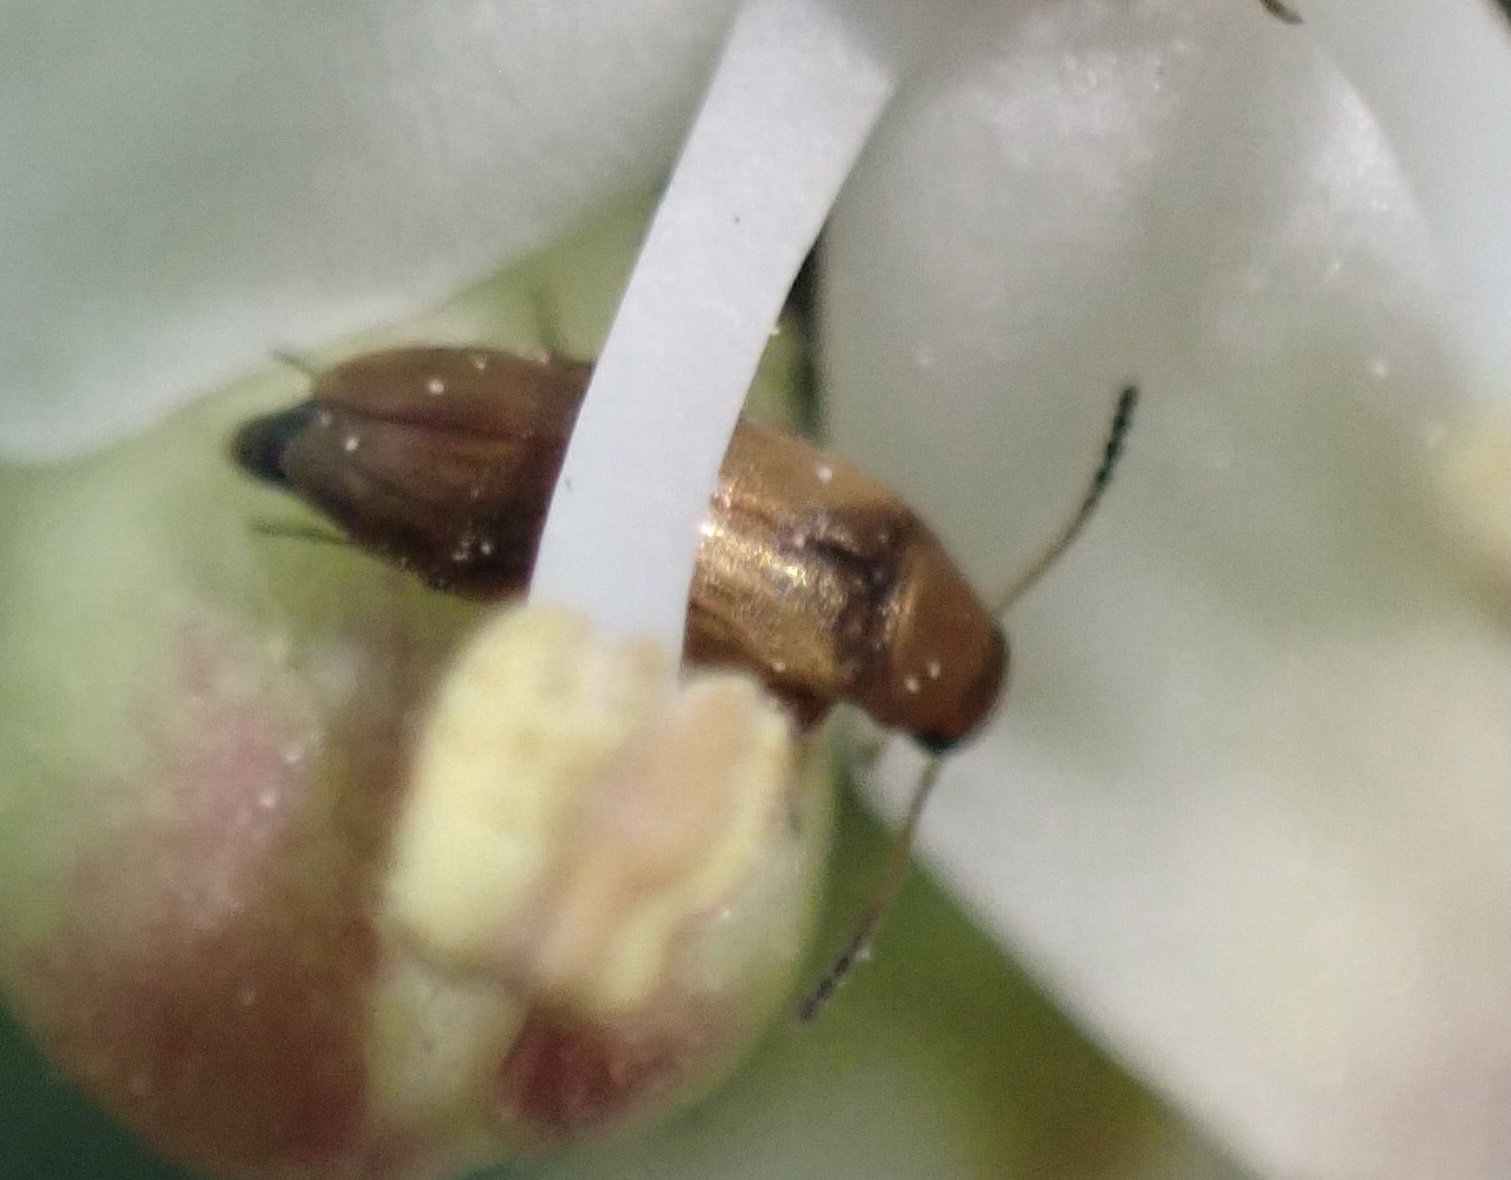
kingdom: Animalia
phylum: Arthropoda
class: Insecta
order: Coleoptera
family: Scraptiidae
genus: Anaspis
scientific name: Anaspis maculata
